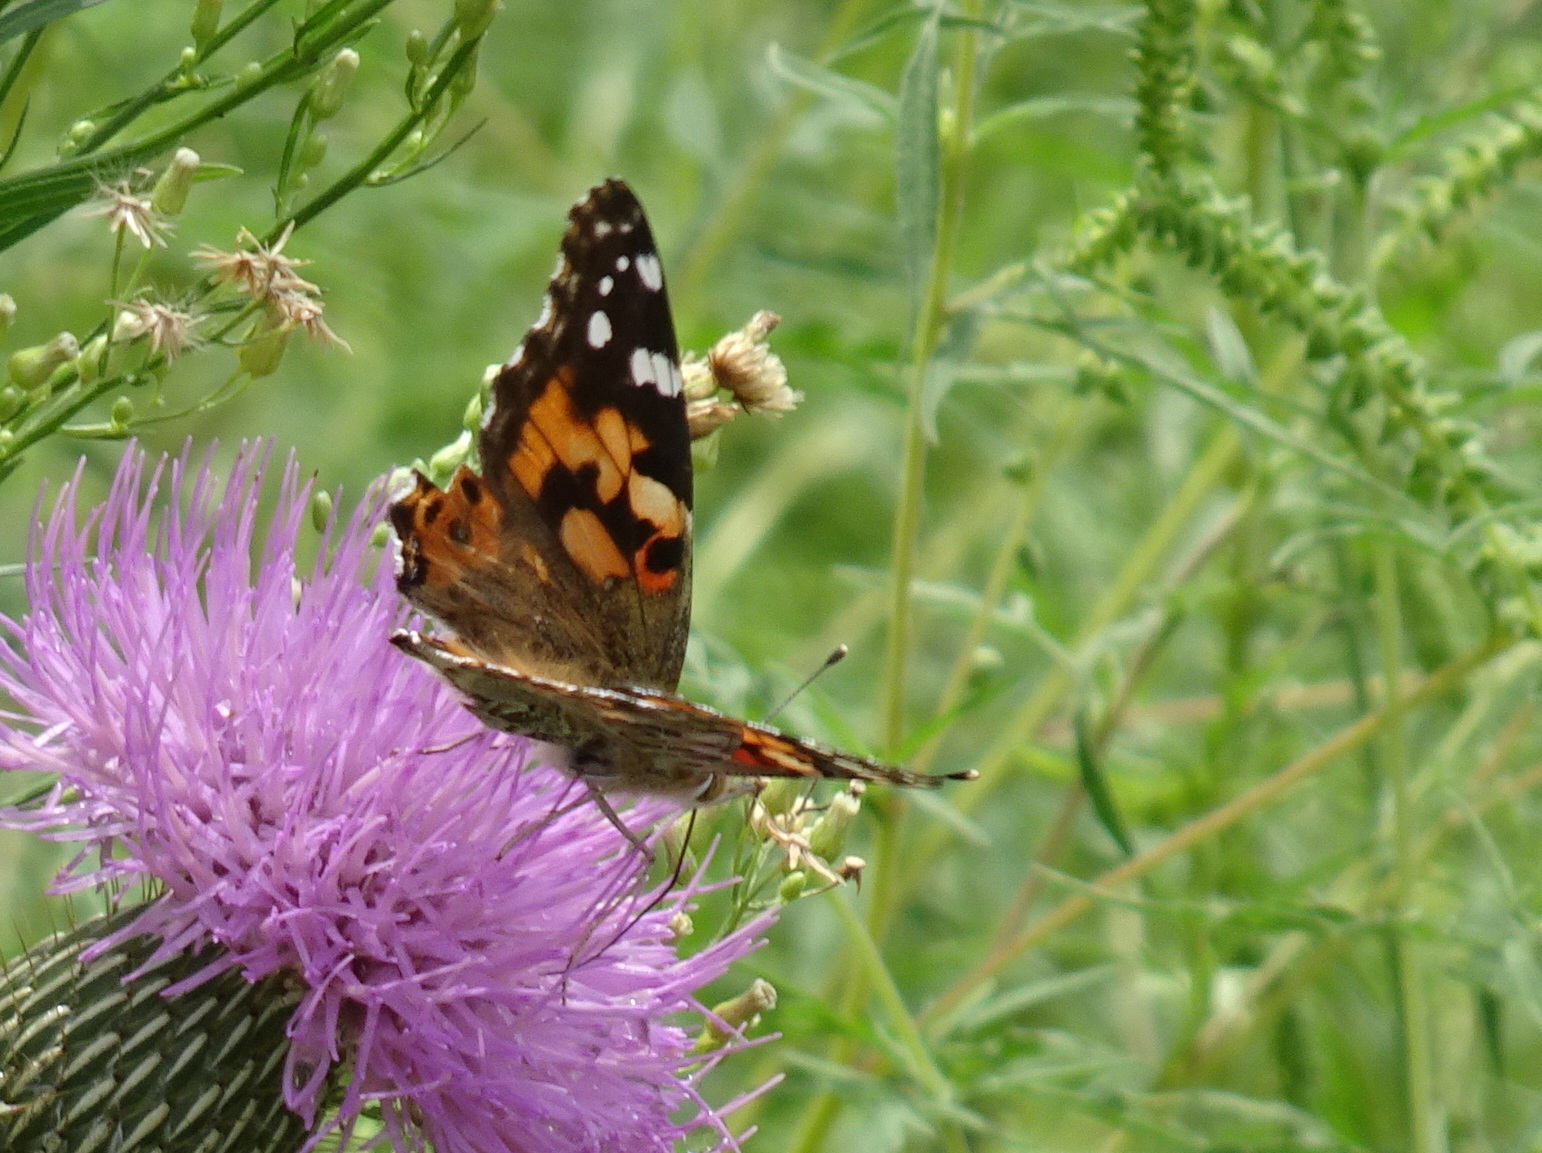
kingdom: Animalia
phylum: Arthropoda
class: Insecta
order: Lepidoptera
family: Nymphalidae
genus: Vanessa
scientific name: Vanessa cardui
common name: Painted lady
